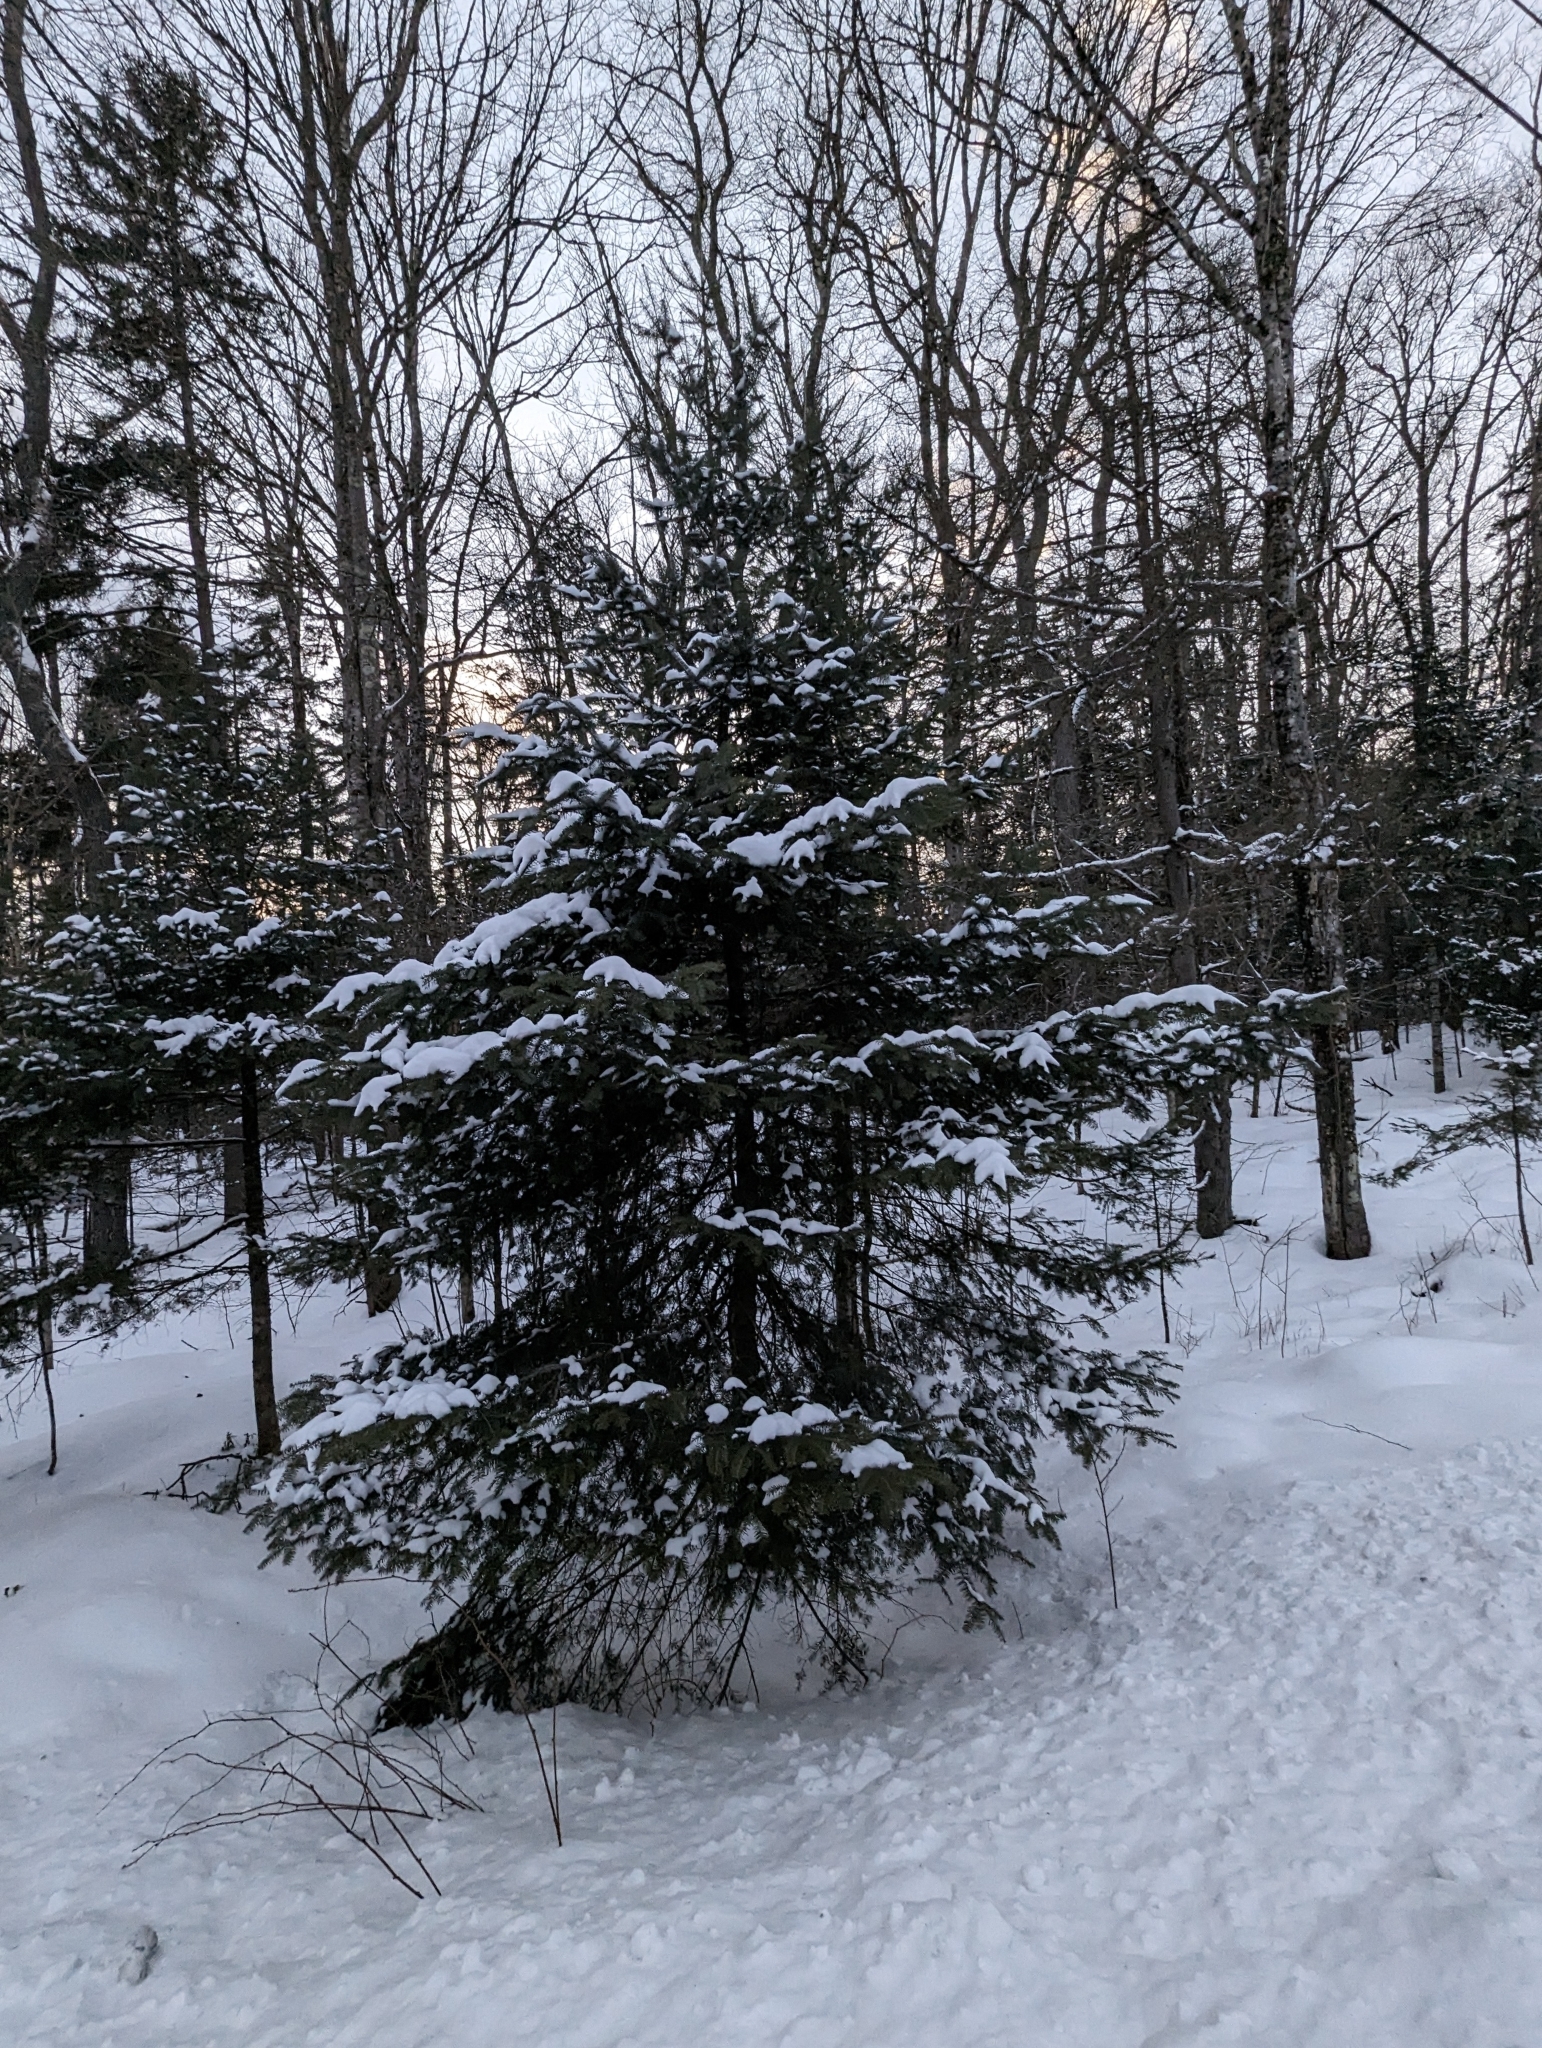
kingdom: Plantae
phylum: Tracheophyta
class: Pinopsida
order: Pinales
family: Pinaceae
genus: Abies
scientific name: Abies balsamea
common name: Balsam fir
